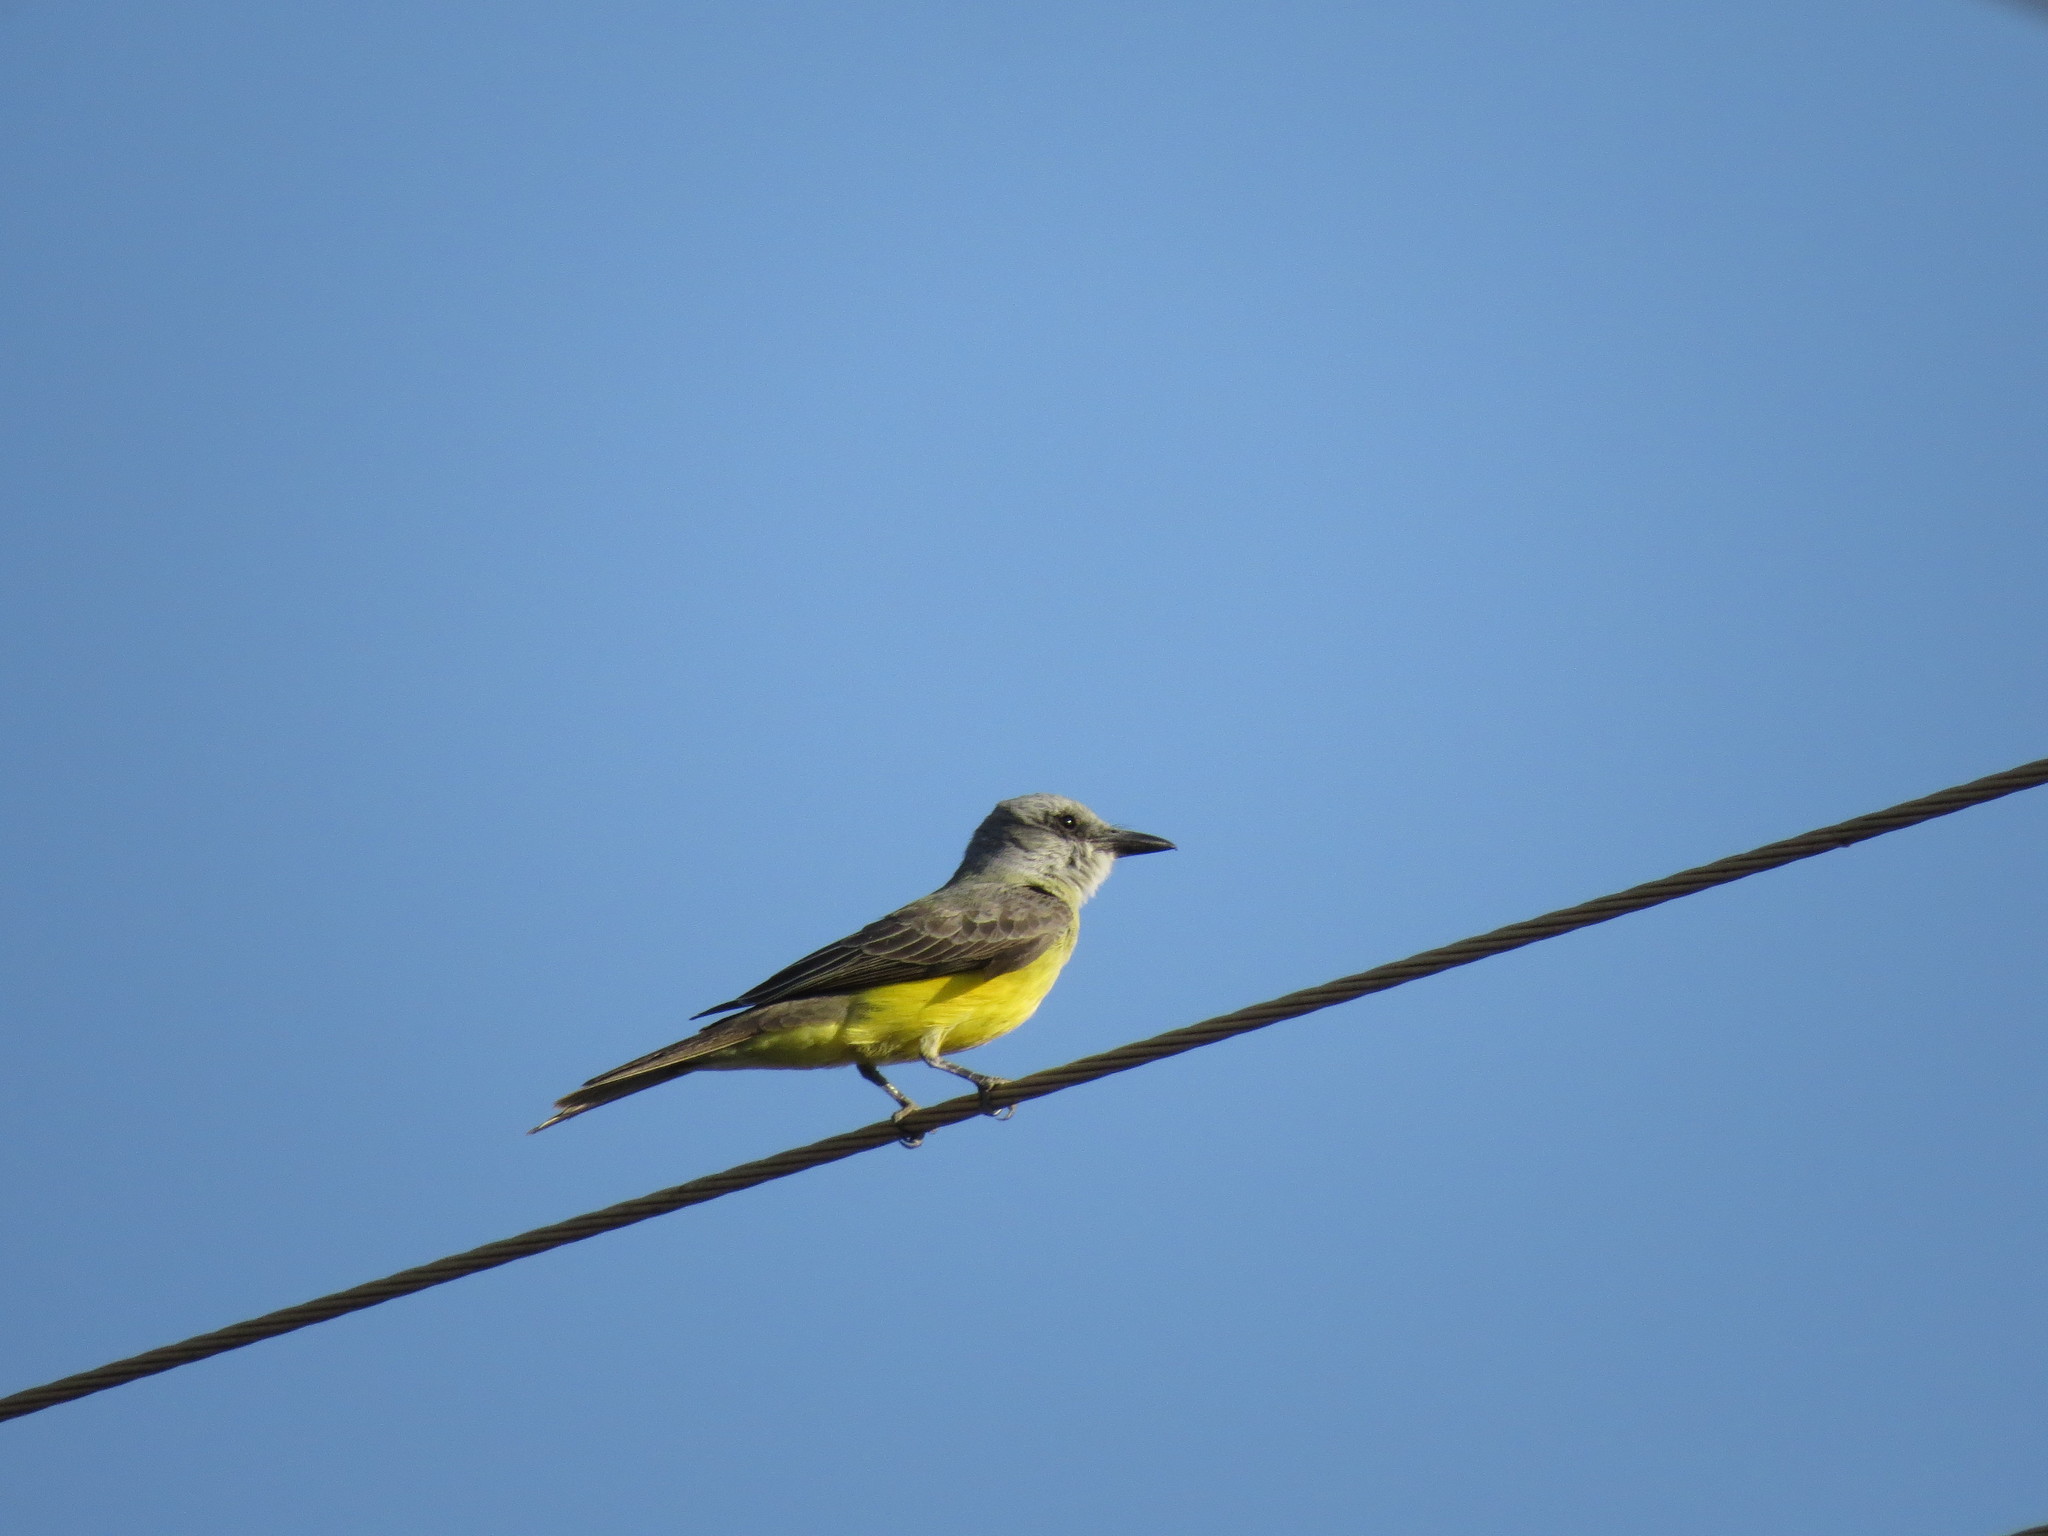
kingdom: Animalia
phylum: Chordata
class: Aves
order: Passeriformes
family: Tyrannidae
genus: Tyrannus
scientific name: Tyrannus melancholicus
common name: Tropical kingbird
